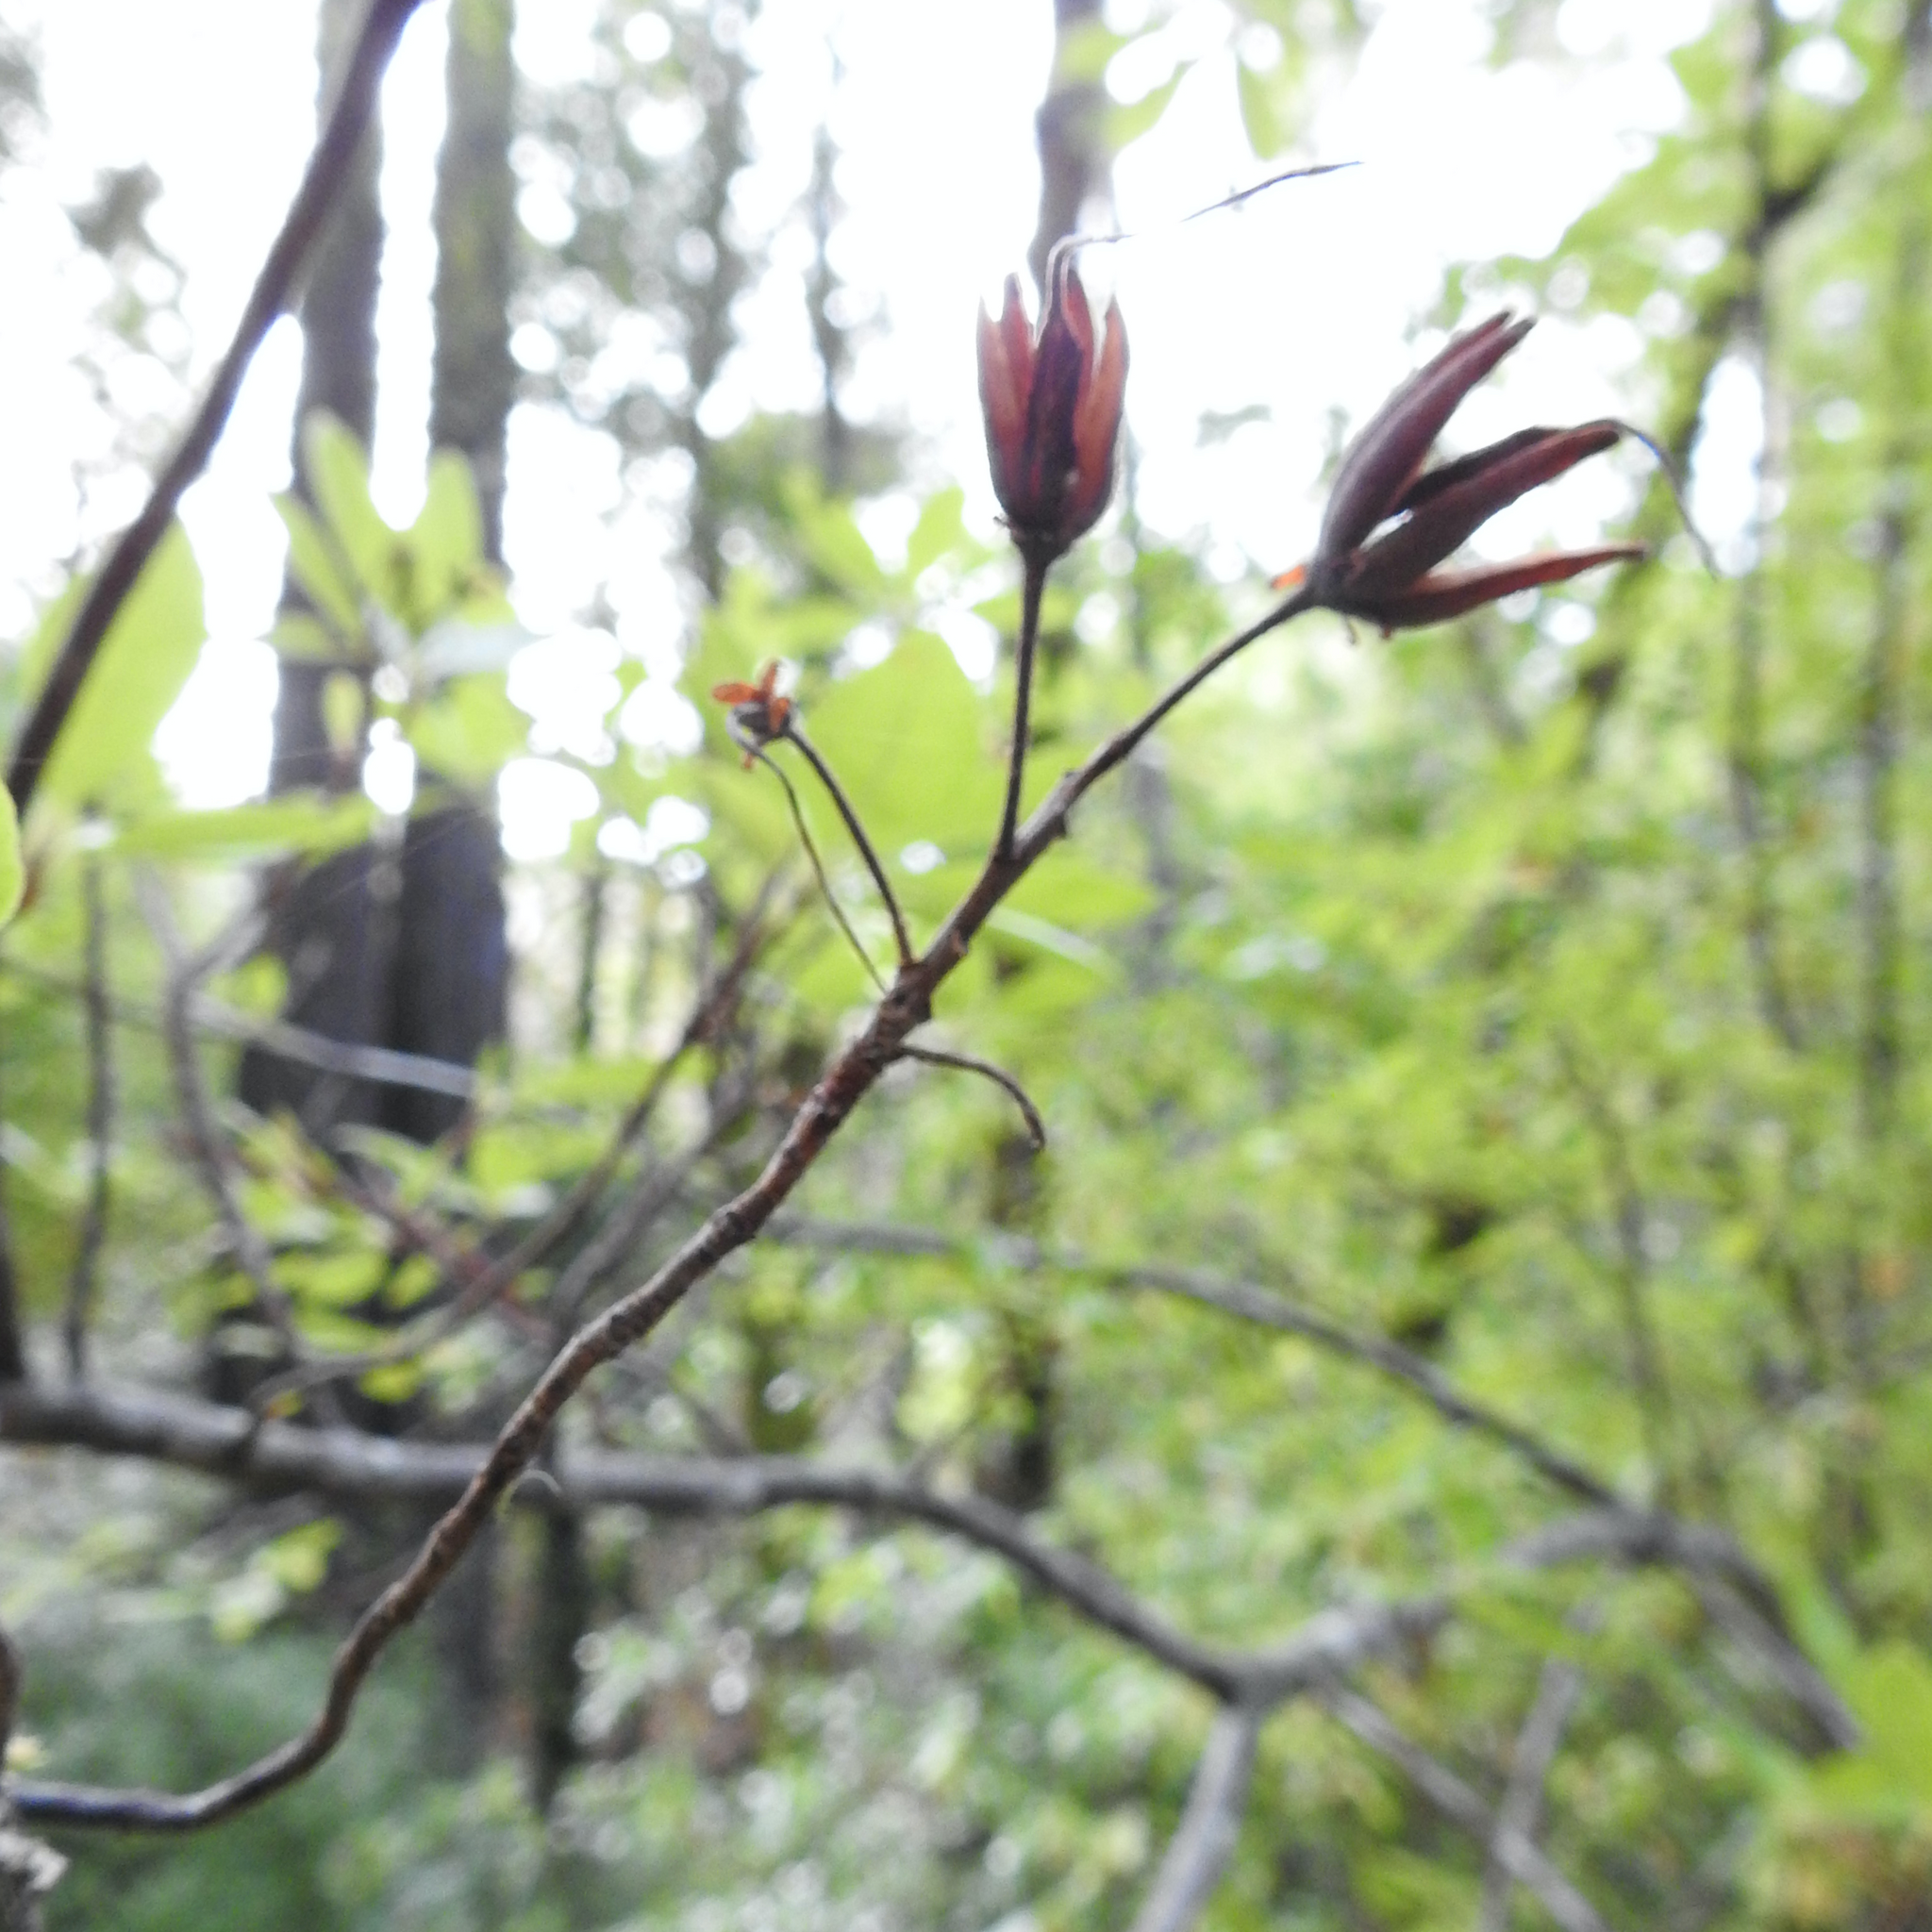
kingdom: Plantae
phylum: Tracheophyta
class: Magnoliopsida
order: Ericales
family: Ericaceae
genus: Rhododendron
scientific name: Rhododendron occidentale
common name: Western azalea
